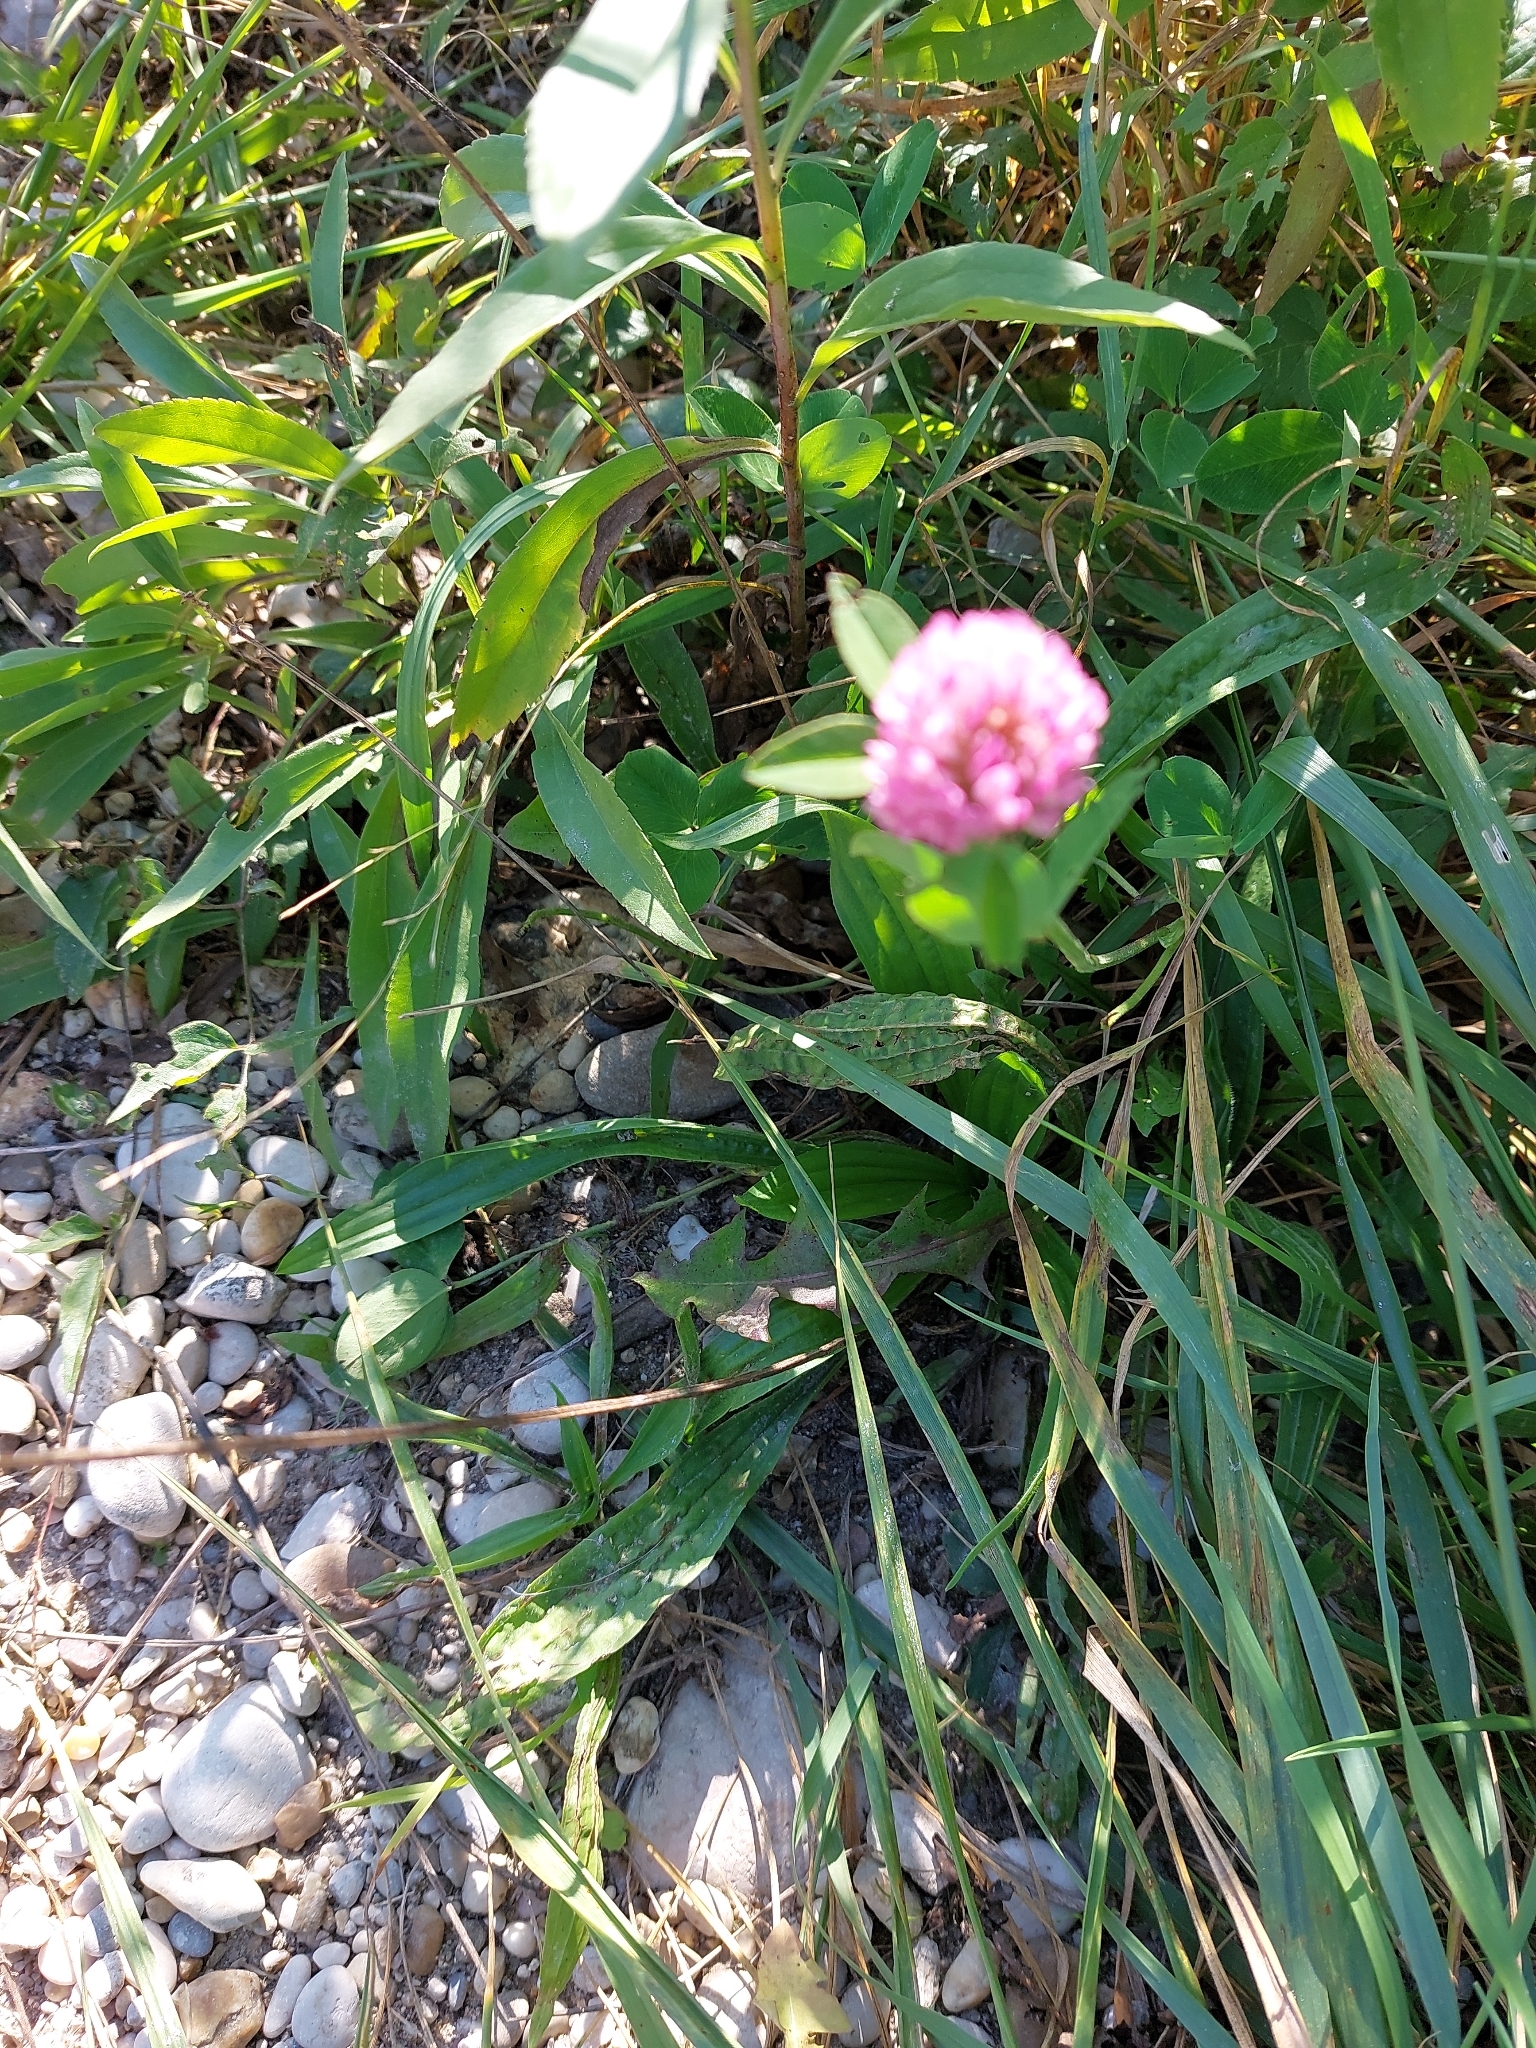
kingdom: Plantae
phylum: Tracheophyta
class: Magnoliopsida
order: Fabales
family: Fabaceae
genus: Trifolium
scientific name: Trifolium pratense
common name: Red clover
